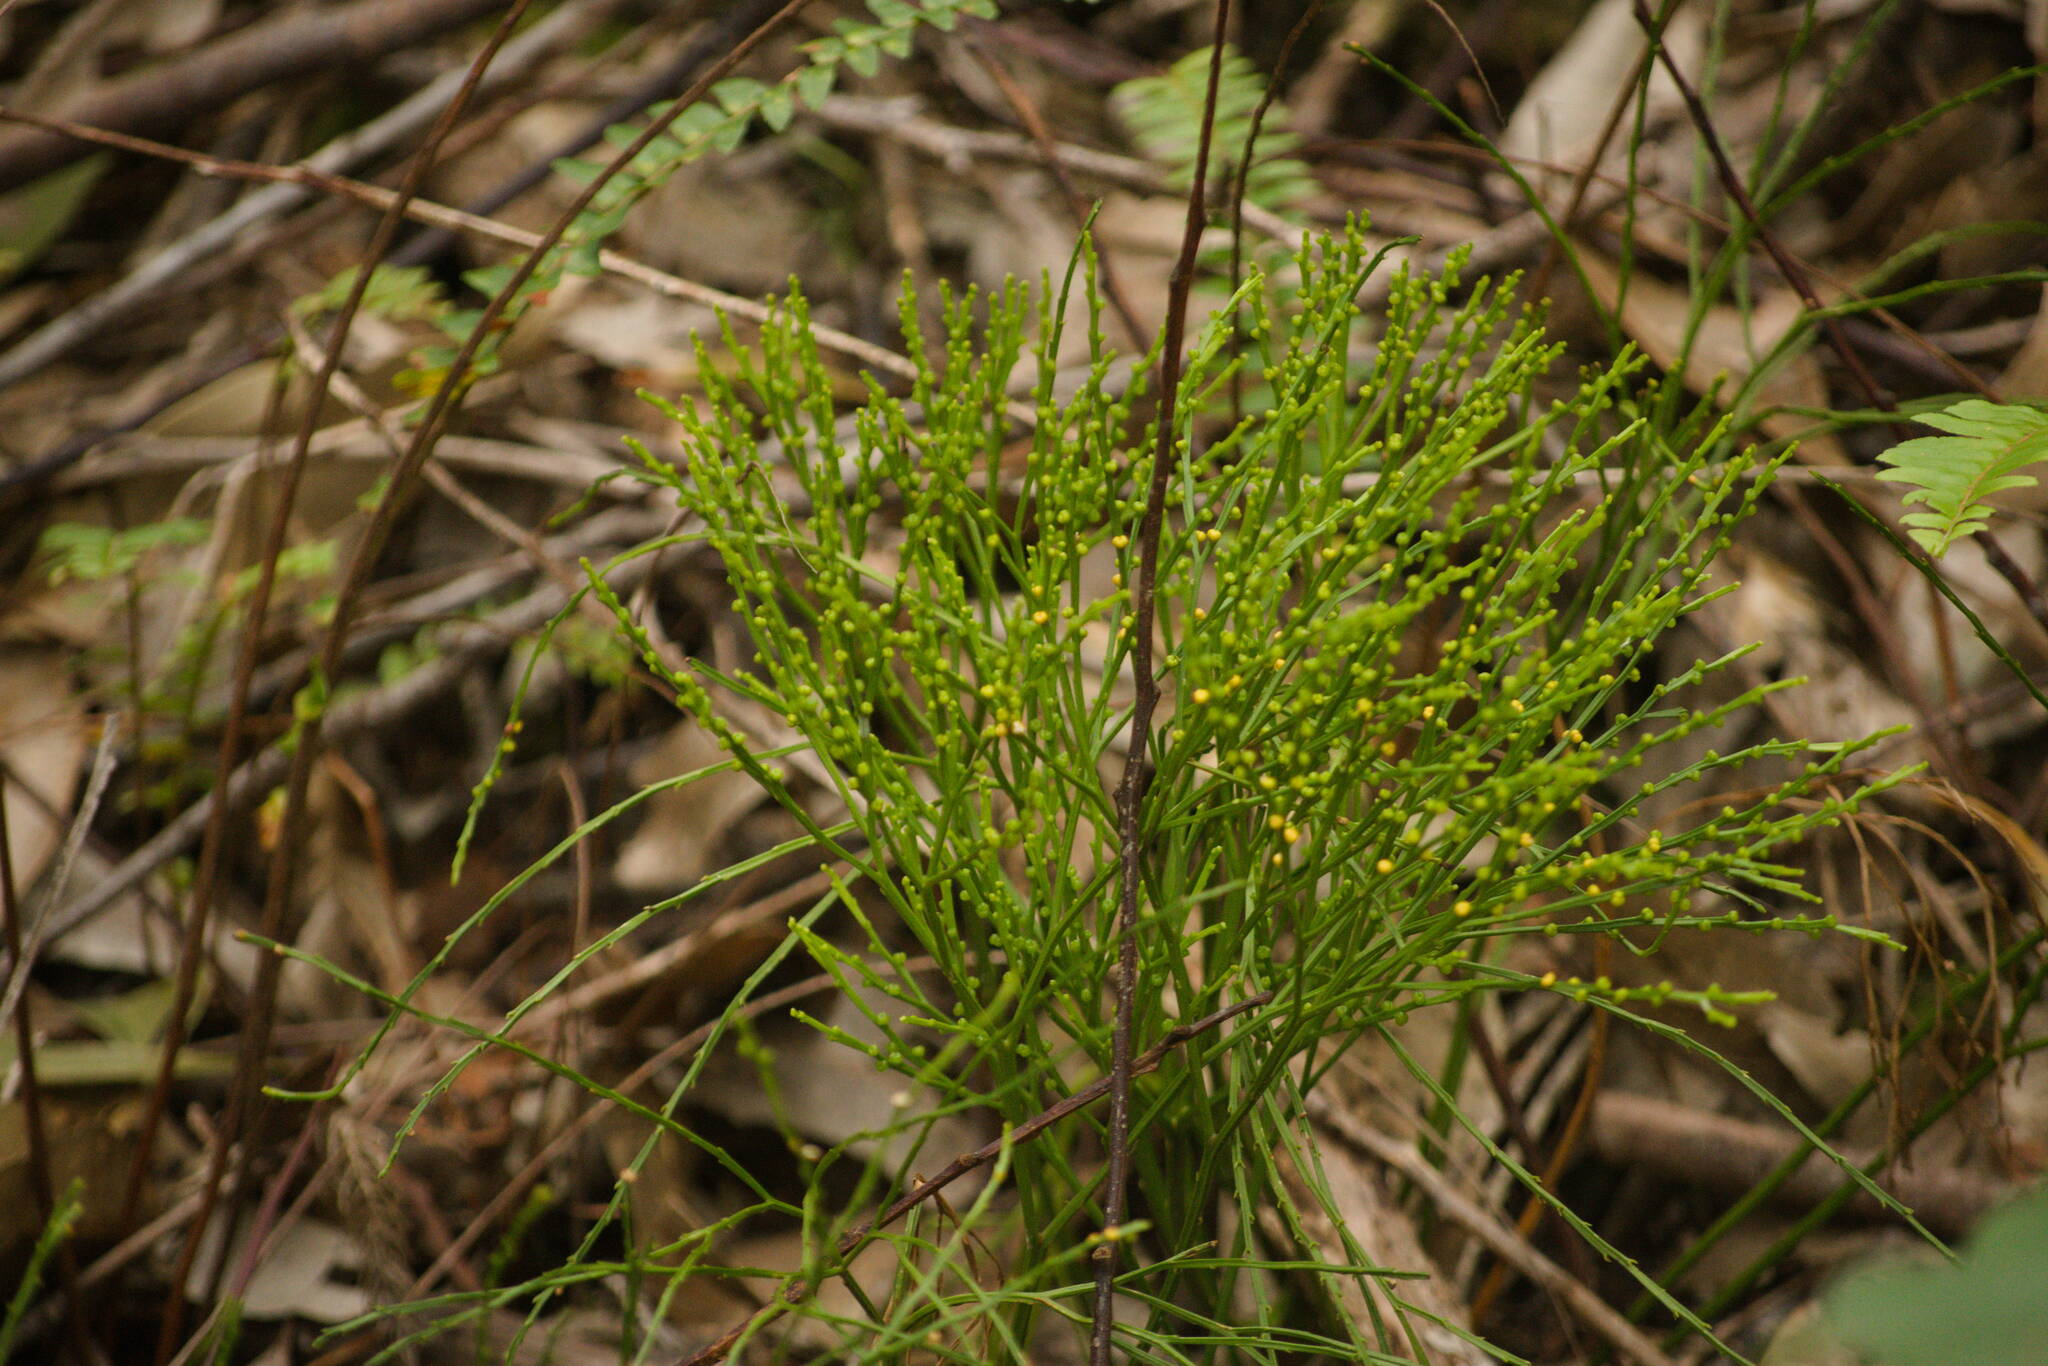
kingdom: Plantae
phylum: Tracheophyta
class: Polypodiopsida
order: Psilotales
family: Psilotaceae
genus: Psilotum
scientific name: Psilotum nudum
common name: Skeleton fork fern
